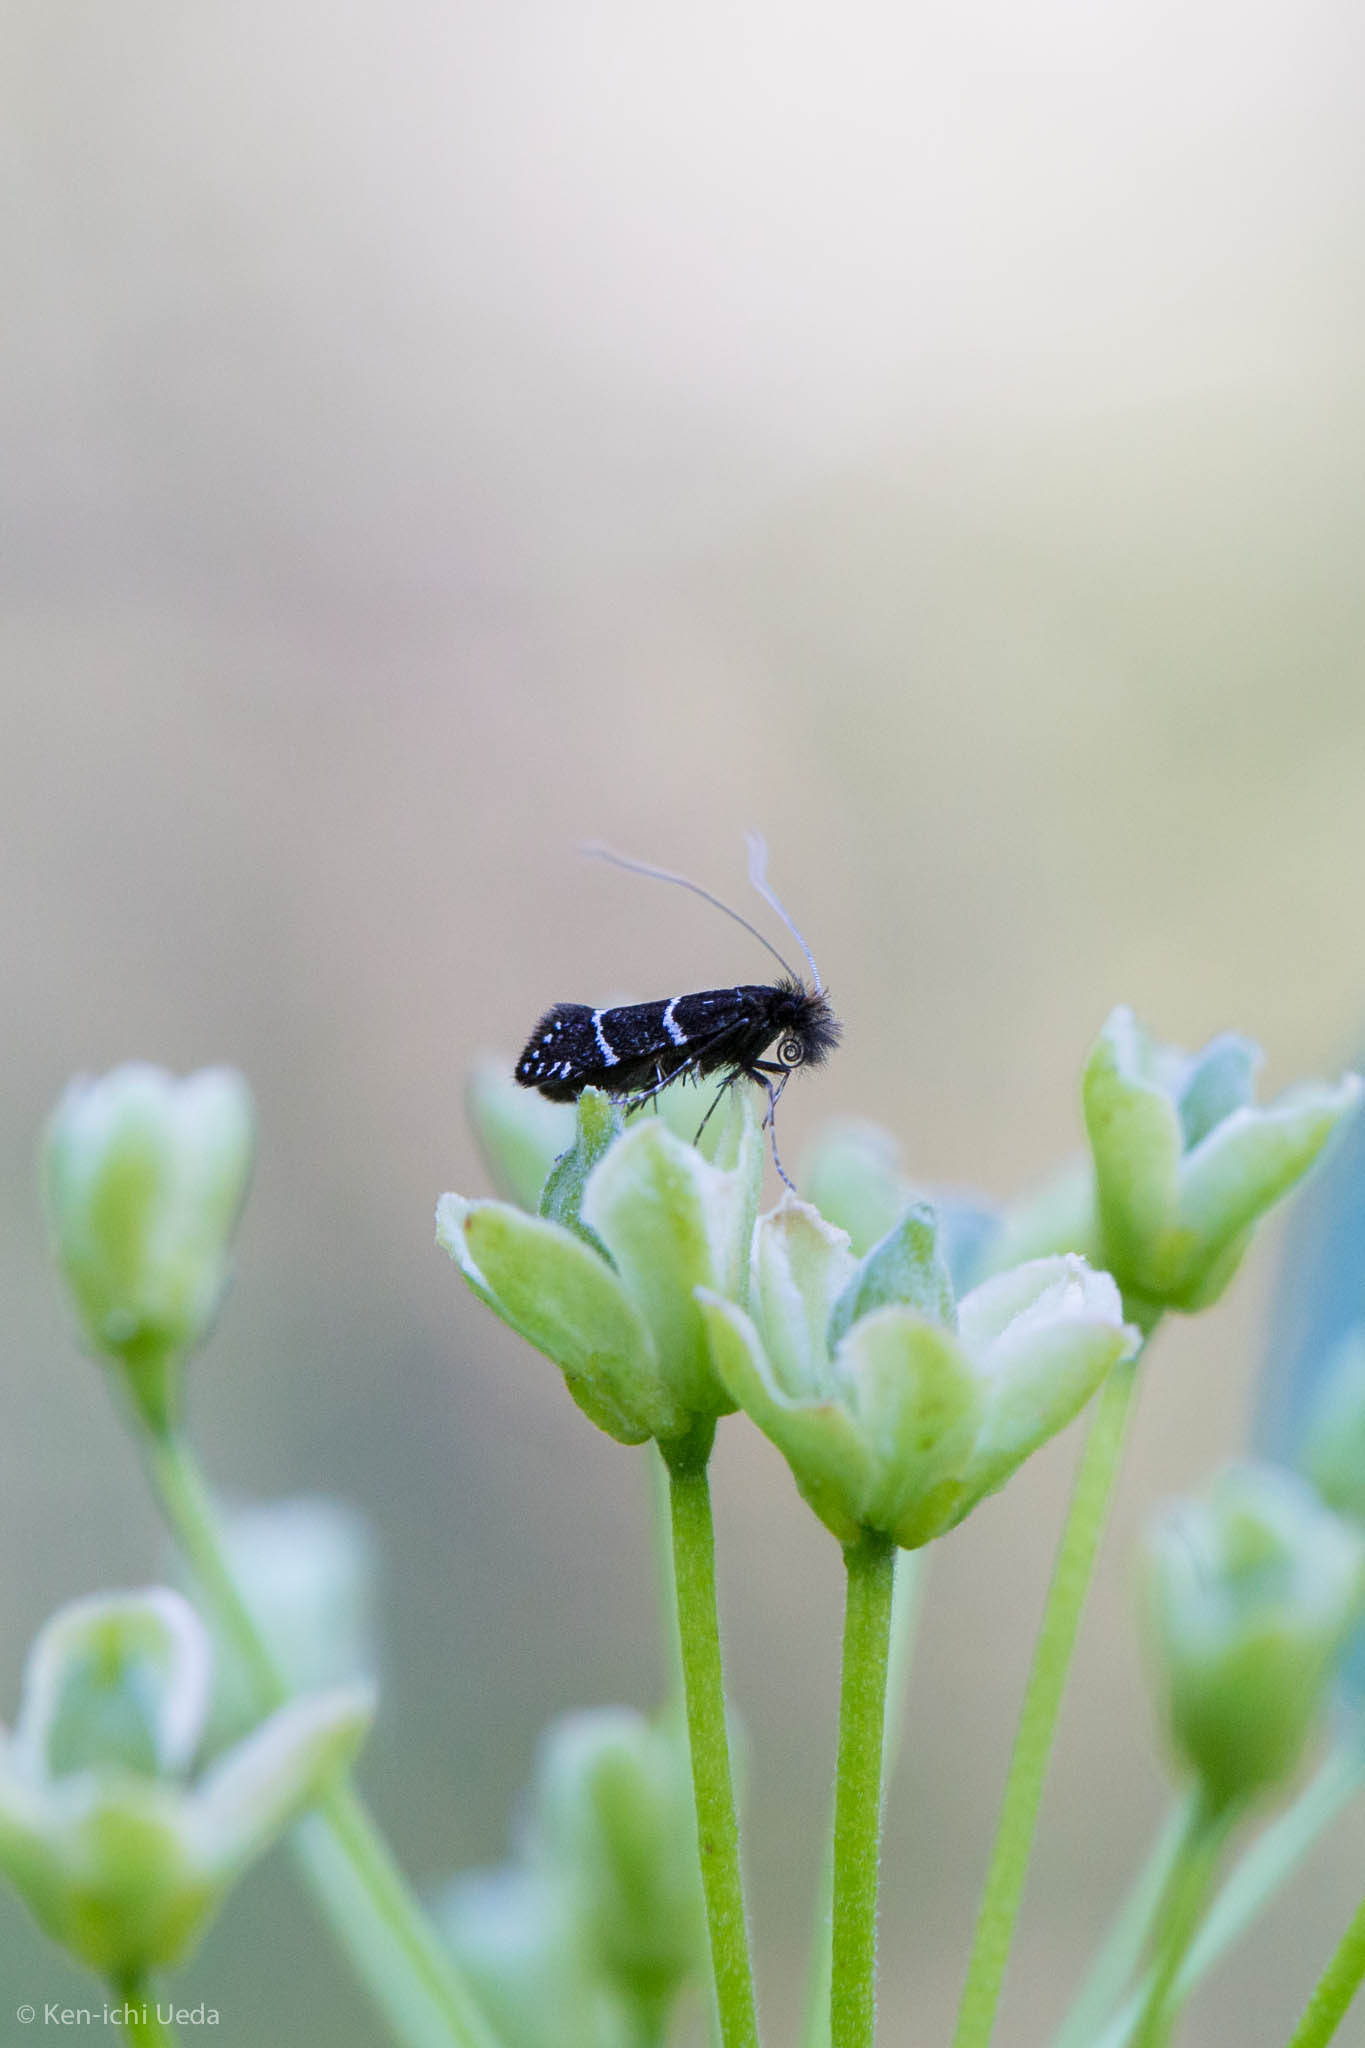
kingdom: Animalia
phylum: Arthropoda
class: Insecta
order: Lepidoptera
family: Adelidae
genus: Adela
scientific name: Adela septentrionella
